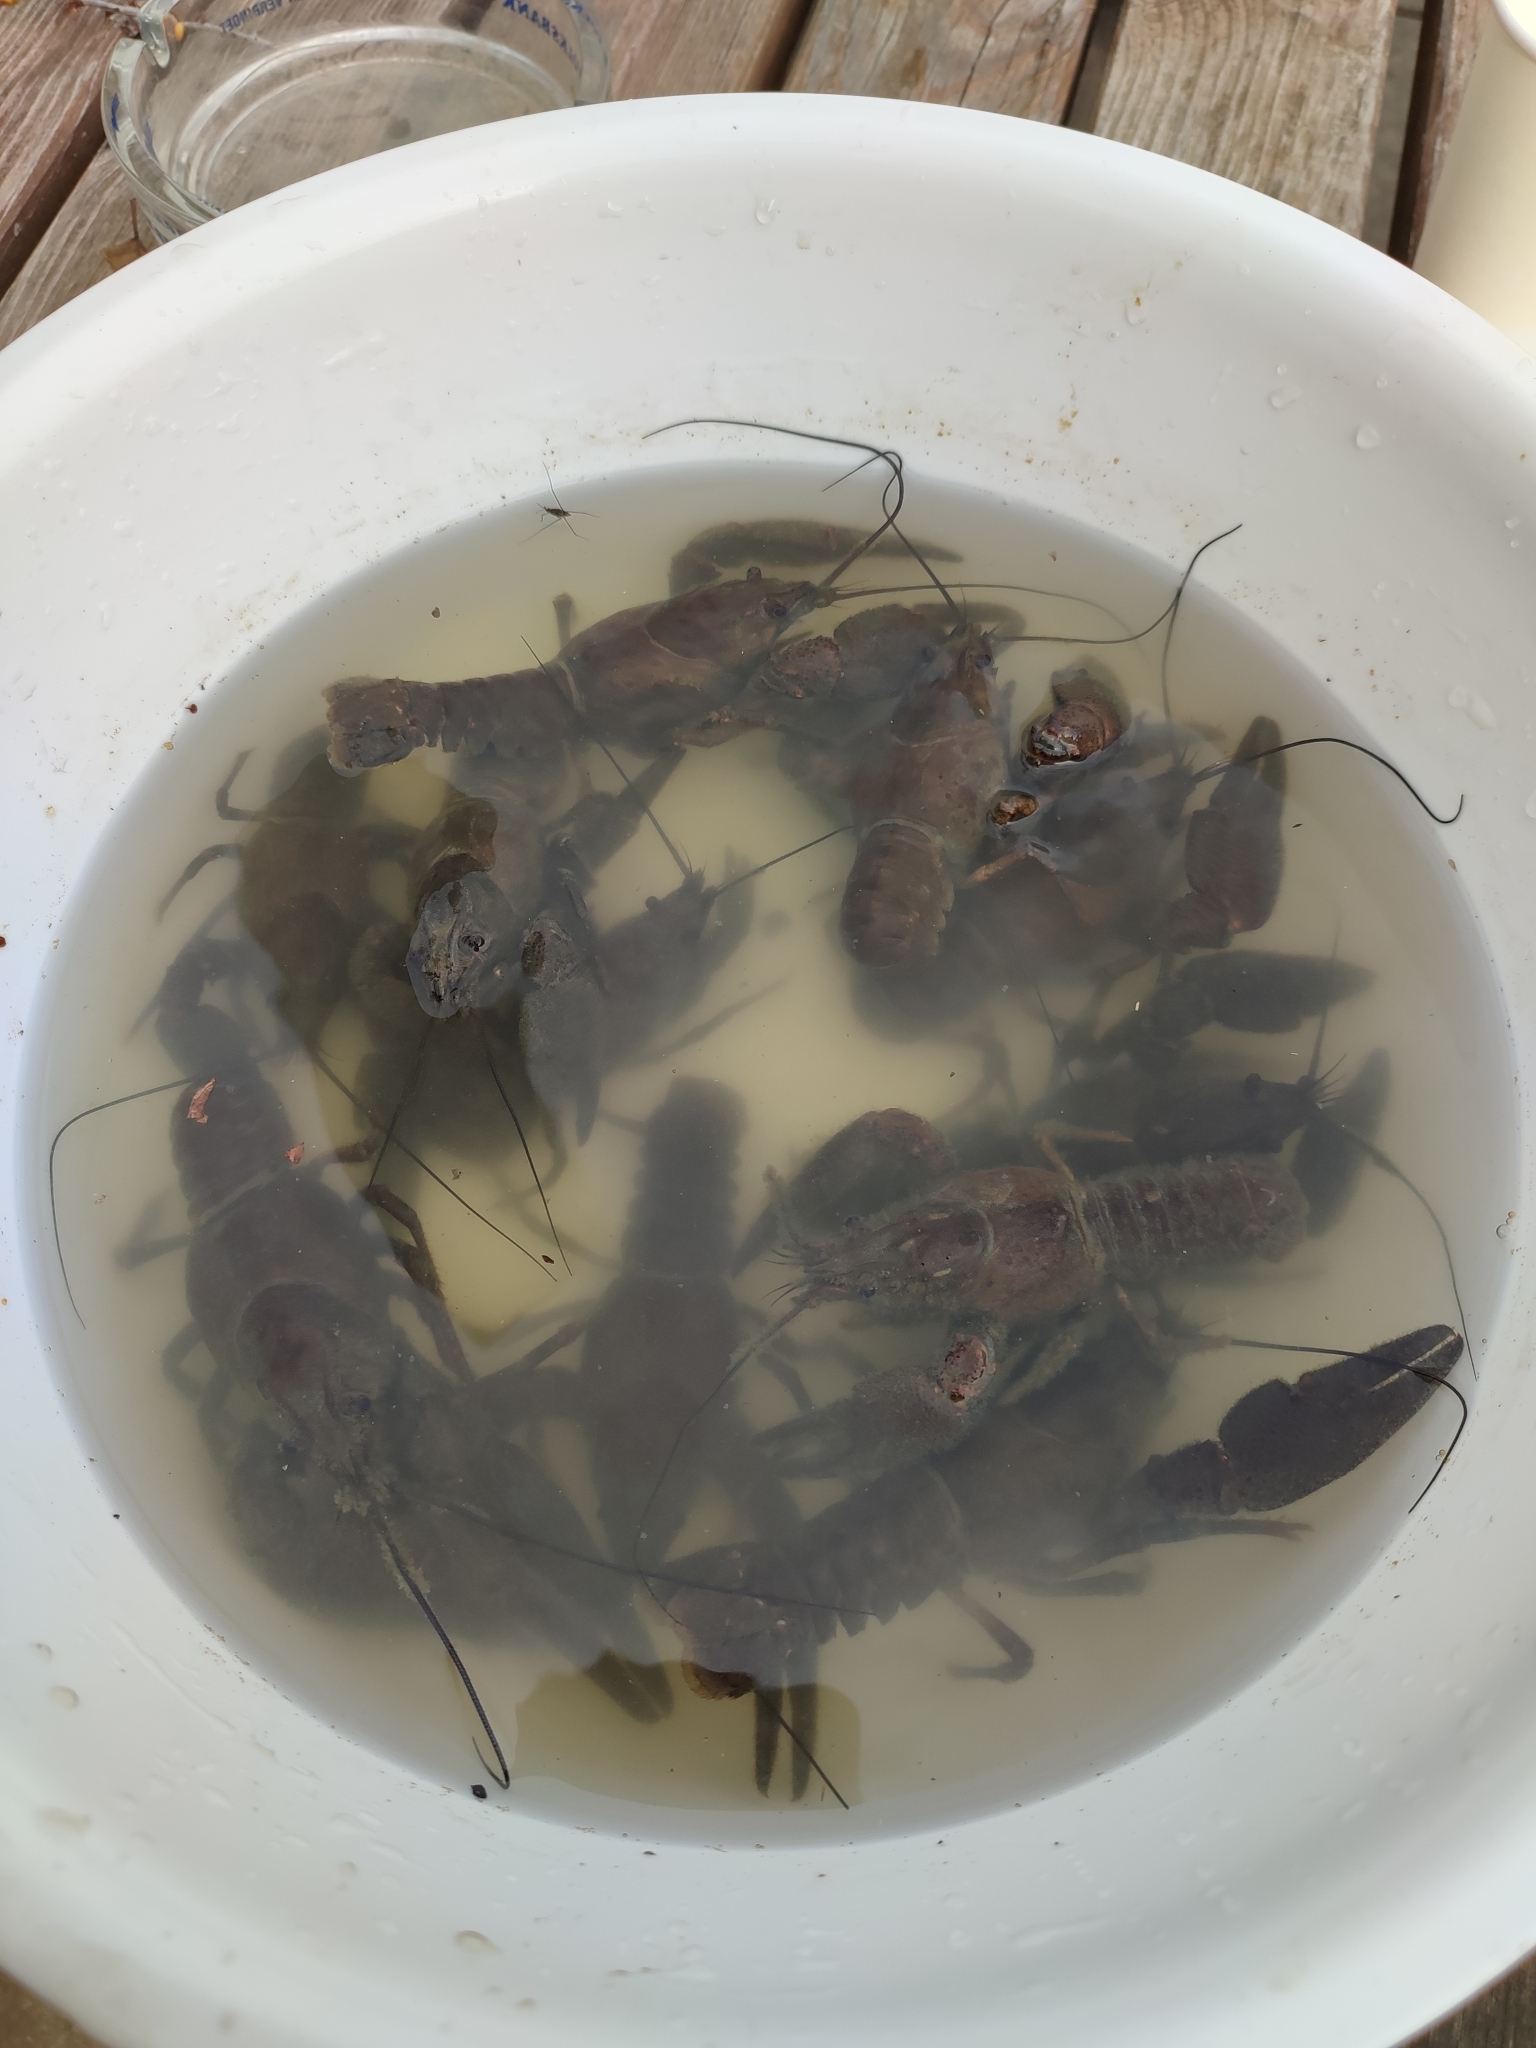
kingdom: Animalia
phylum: Arthropoda
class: Malacostraca
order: Decapoda
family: Astacidae
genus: Astacus
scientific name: Astacus astacus
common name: Noble crayfish
